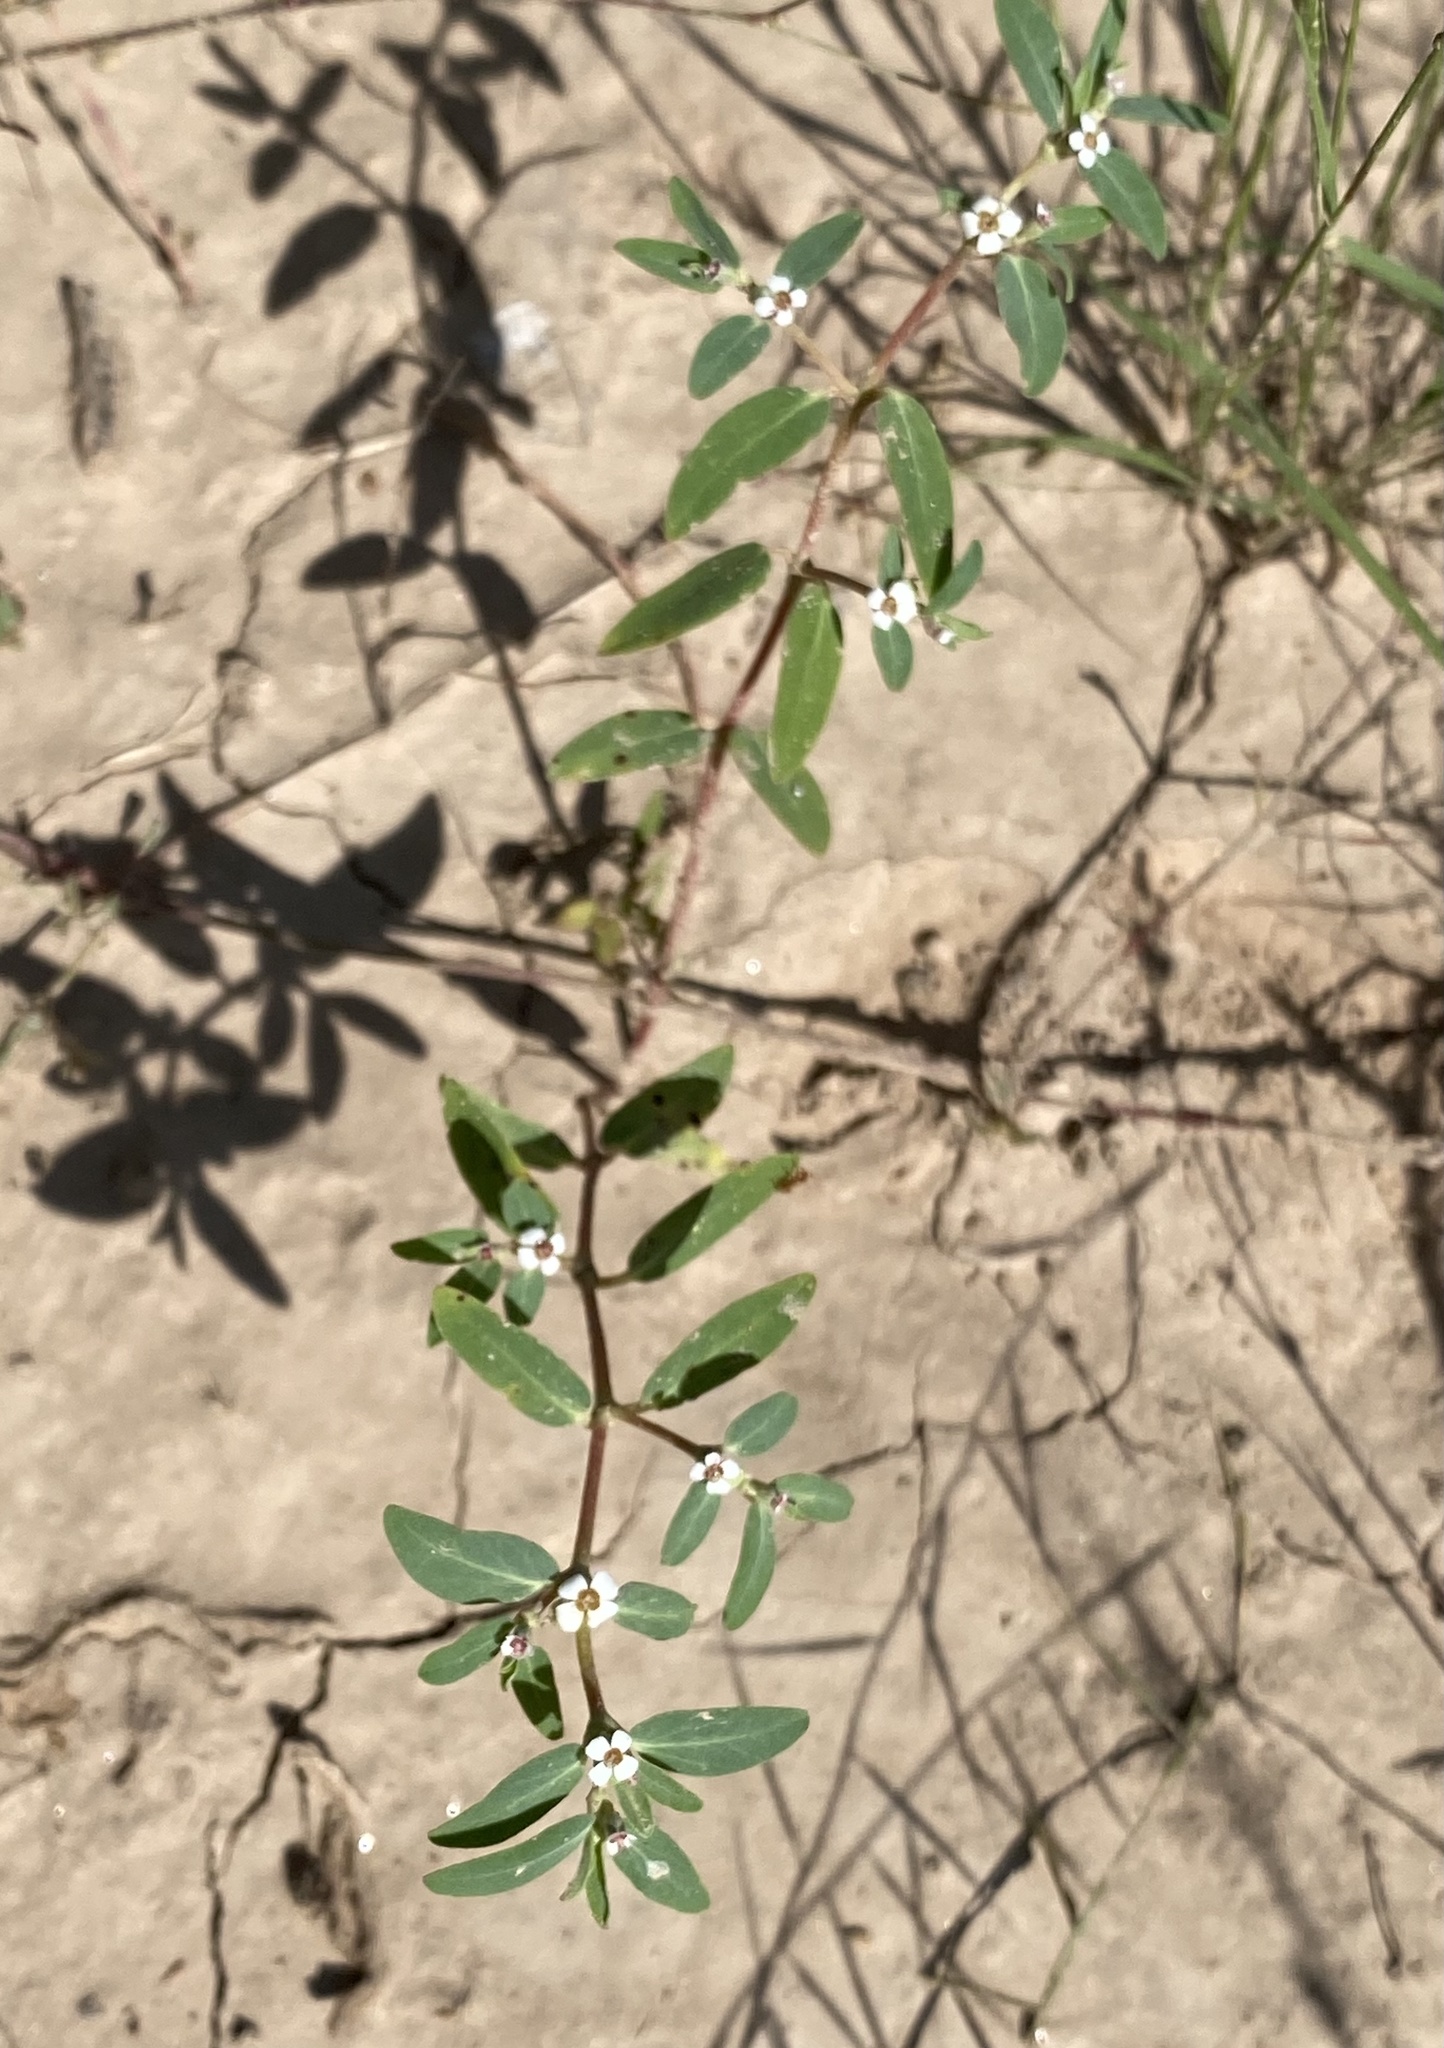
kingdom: Plantae
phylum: Tracheophyta
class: Magnoliopsida
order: Malpighiales
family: Euphorbiaceae
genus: Euphorbia
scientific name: Euphorbia pediculifera
